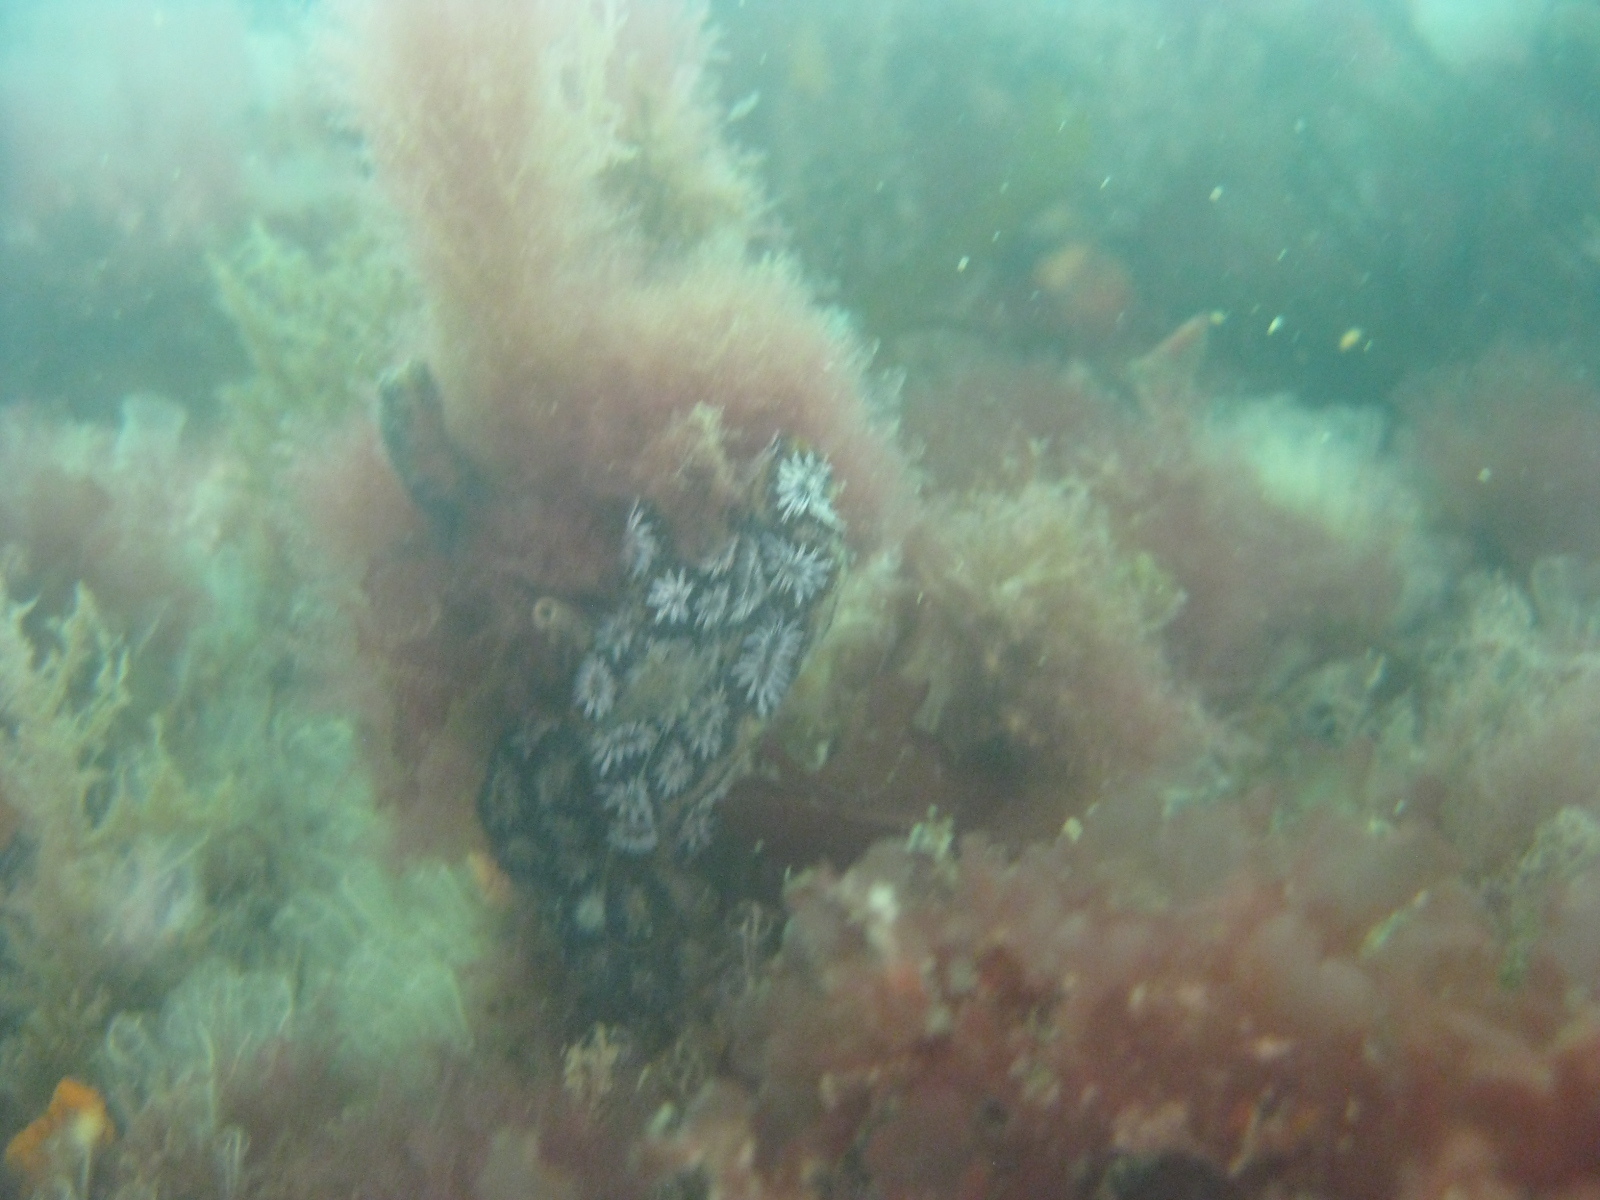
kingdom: Animalia
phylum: Chordata
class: Ascidiacea
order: Stolidobranchia
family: Styelidae
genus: Botryllus
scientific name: Botryllus schlosseri
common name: Golden star tunicate
